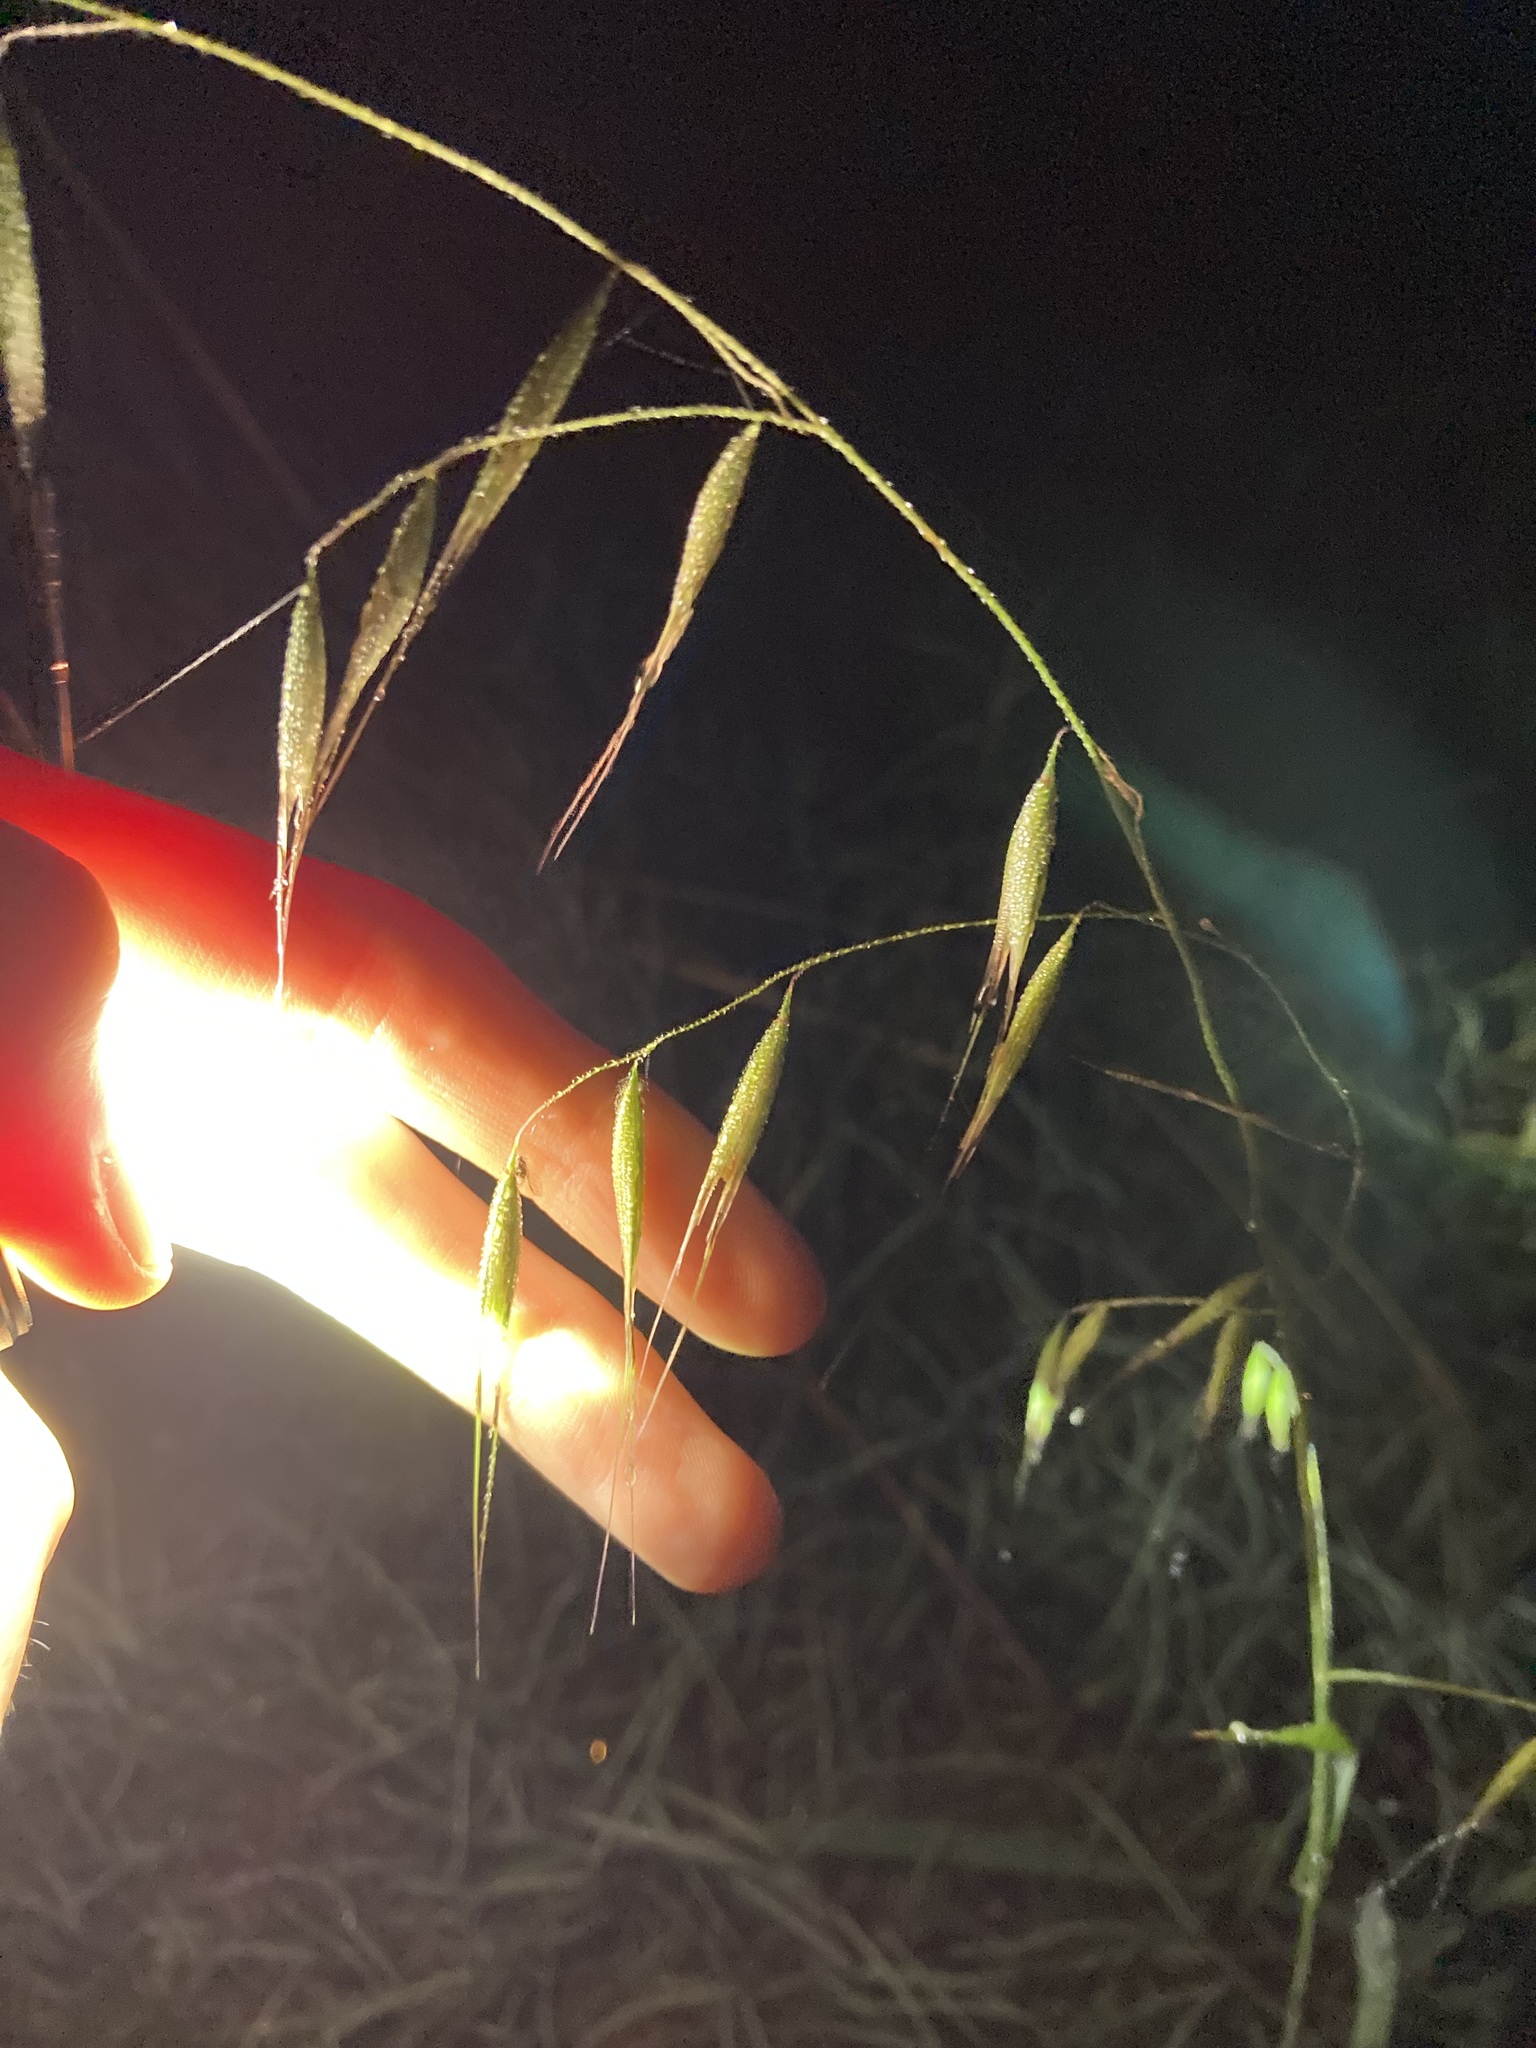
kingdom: Plantae
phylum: Tracheophyta
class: Liliopsida
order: Poales
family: Poaceae
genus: Avena
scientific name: Avena barbata
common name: Slender oat
